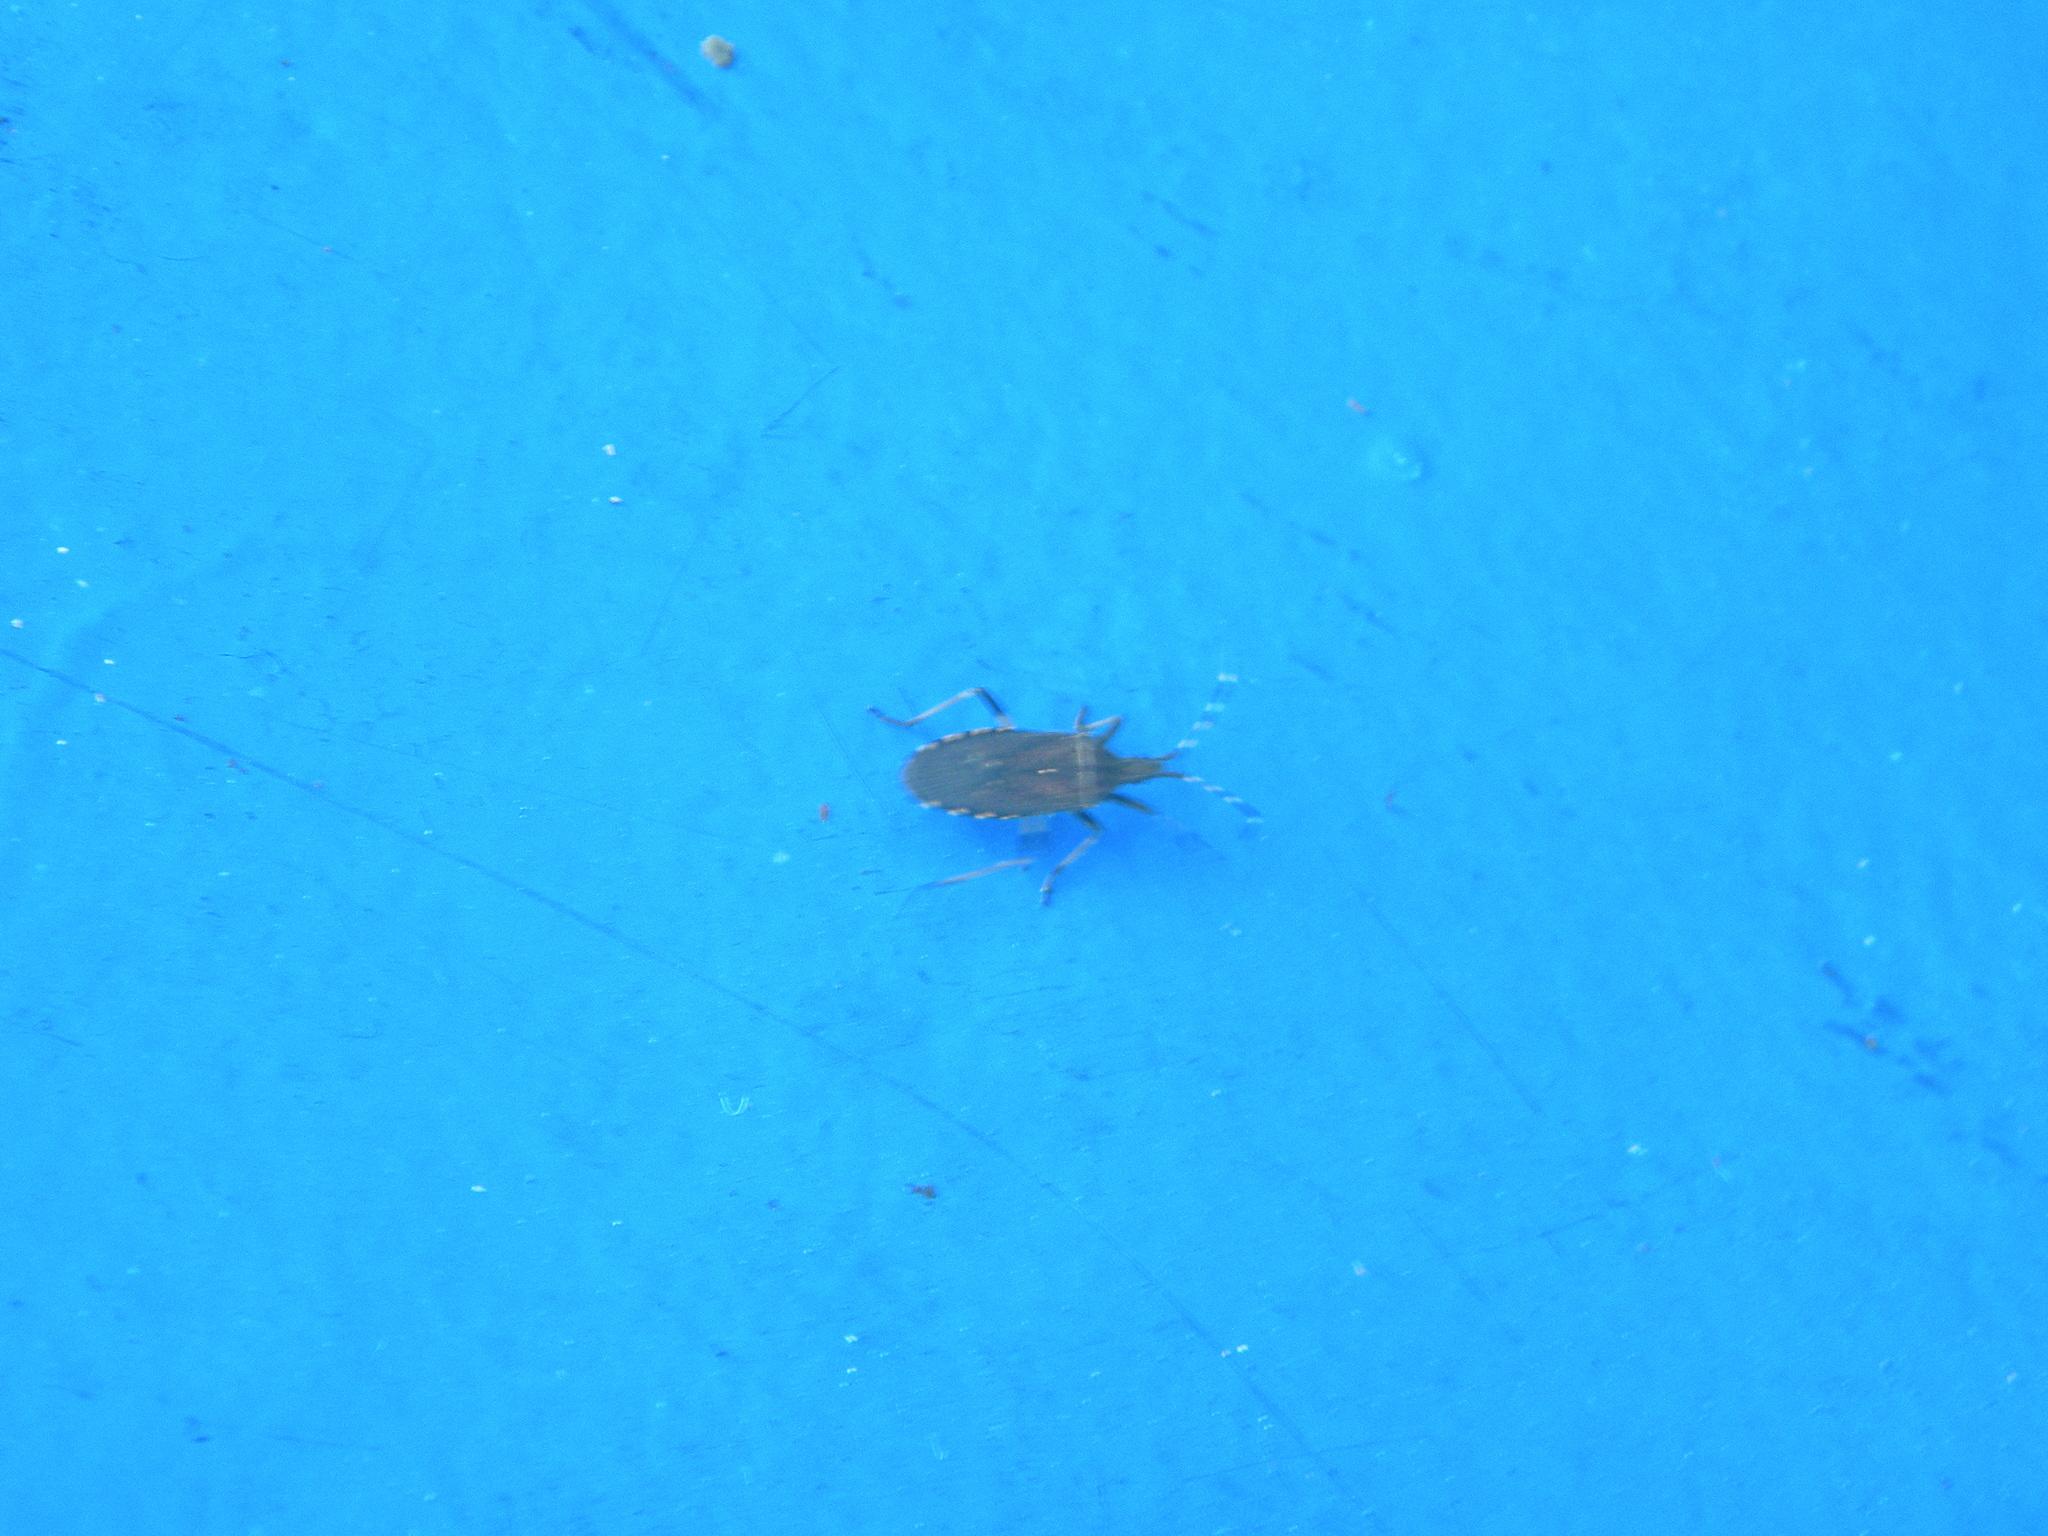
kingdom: Animalia
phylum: Arthropoda
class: Insecta
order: Hemiptera
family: Stenocephalidae
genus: Dicranocephalus
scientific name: Dicranocephalus agilis
